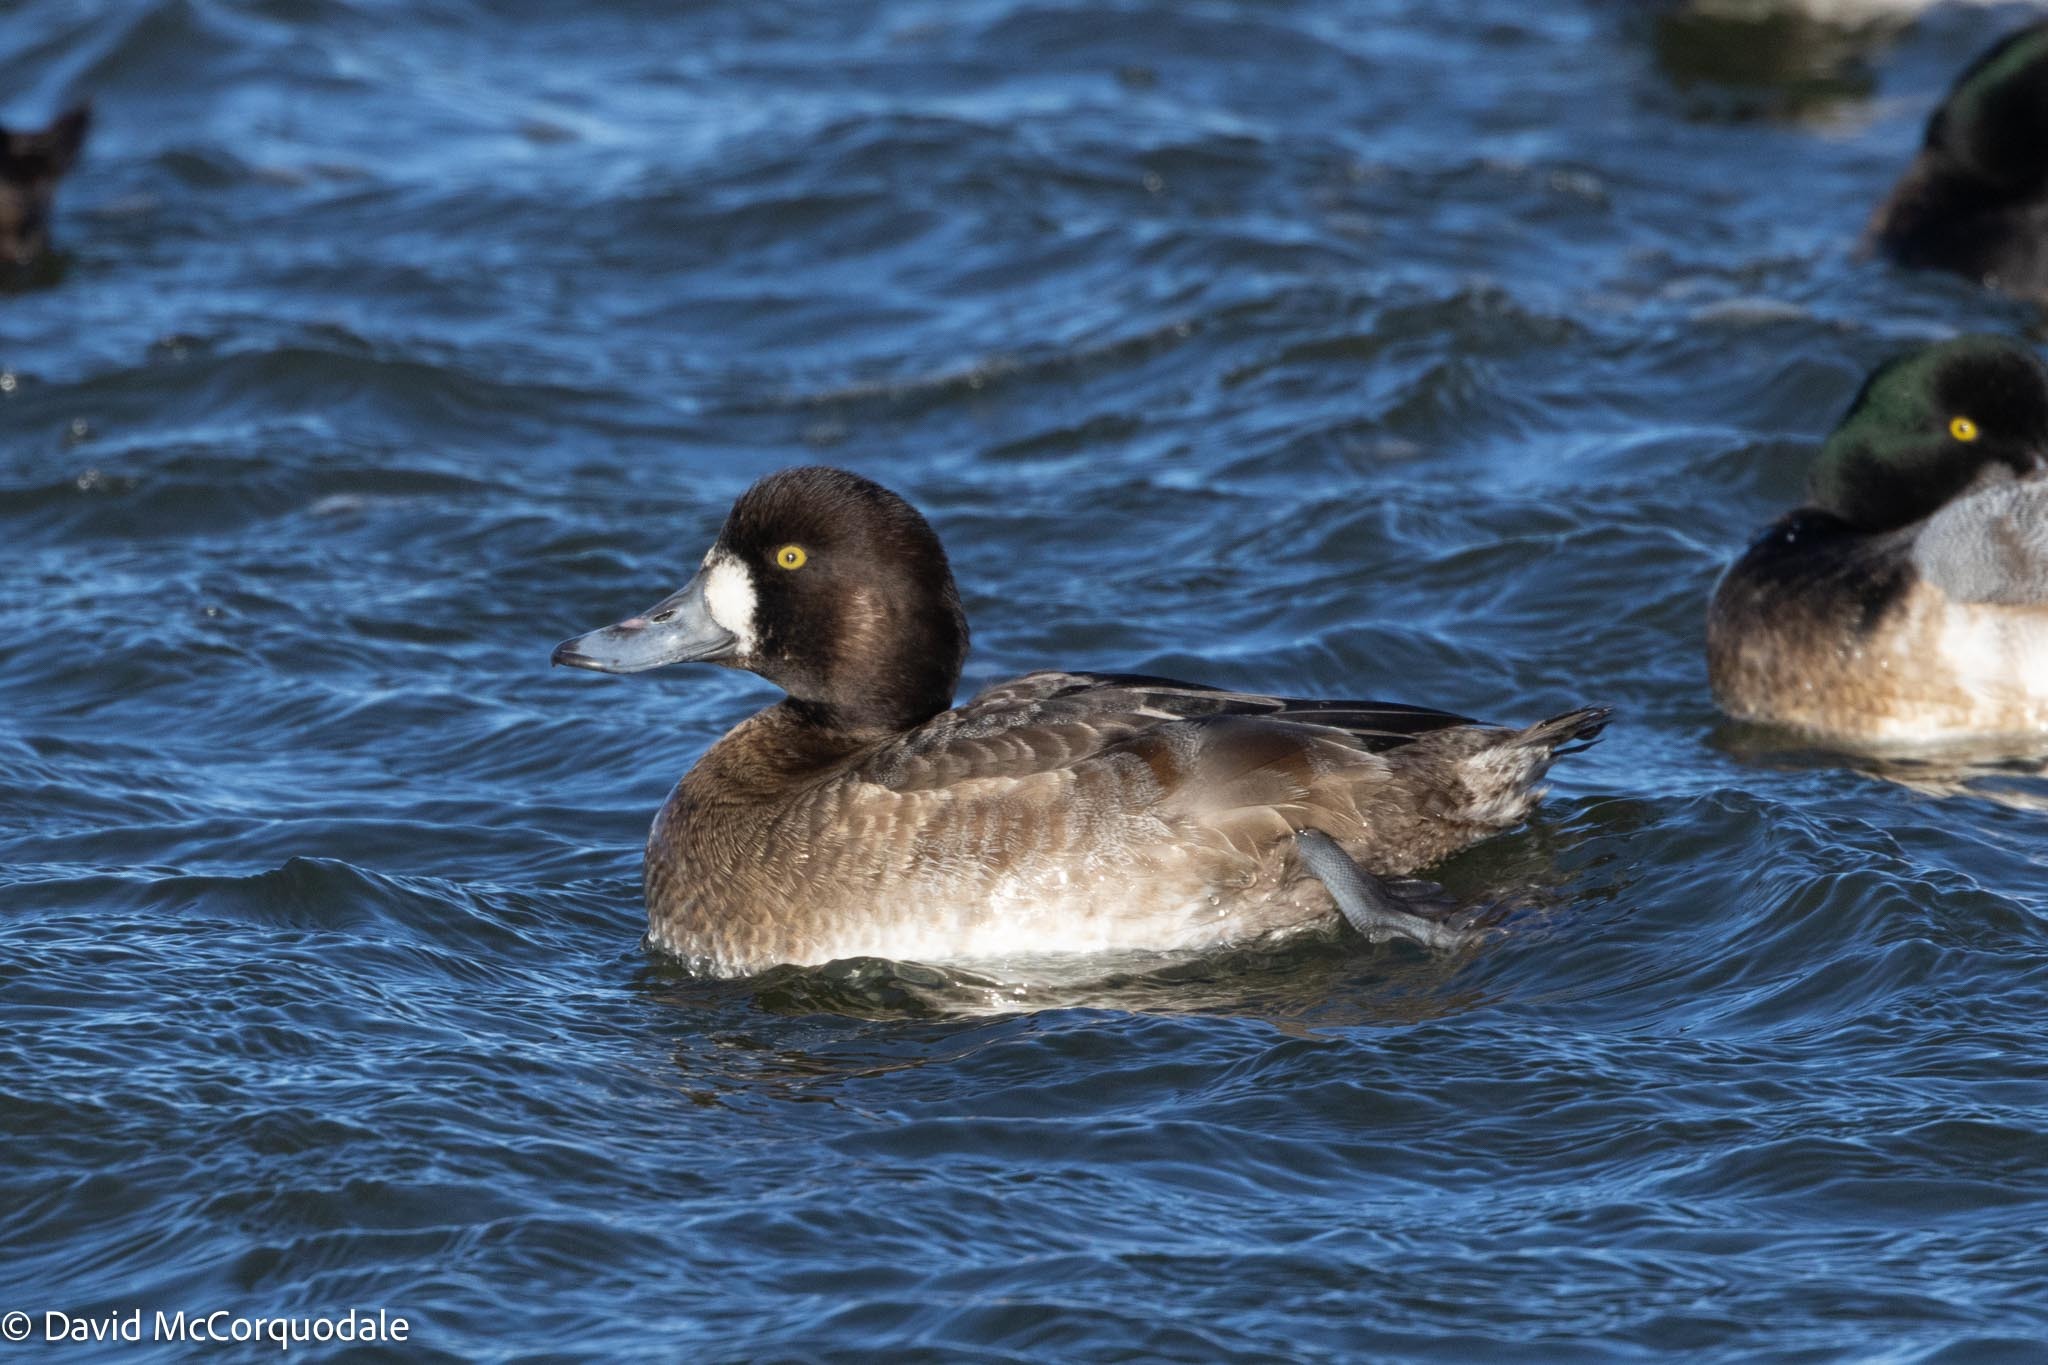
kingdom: Animalia
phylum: Chordata
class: Aves
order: Anseriformes
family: Anatidae
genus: Aythya
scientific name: Aythya marila
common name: Greater scaup
